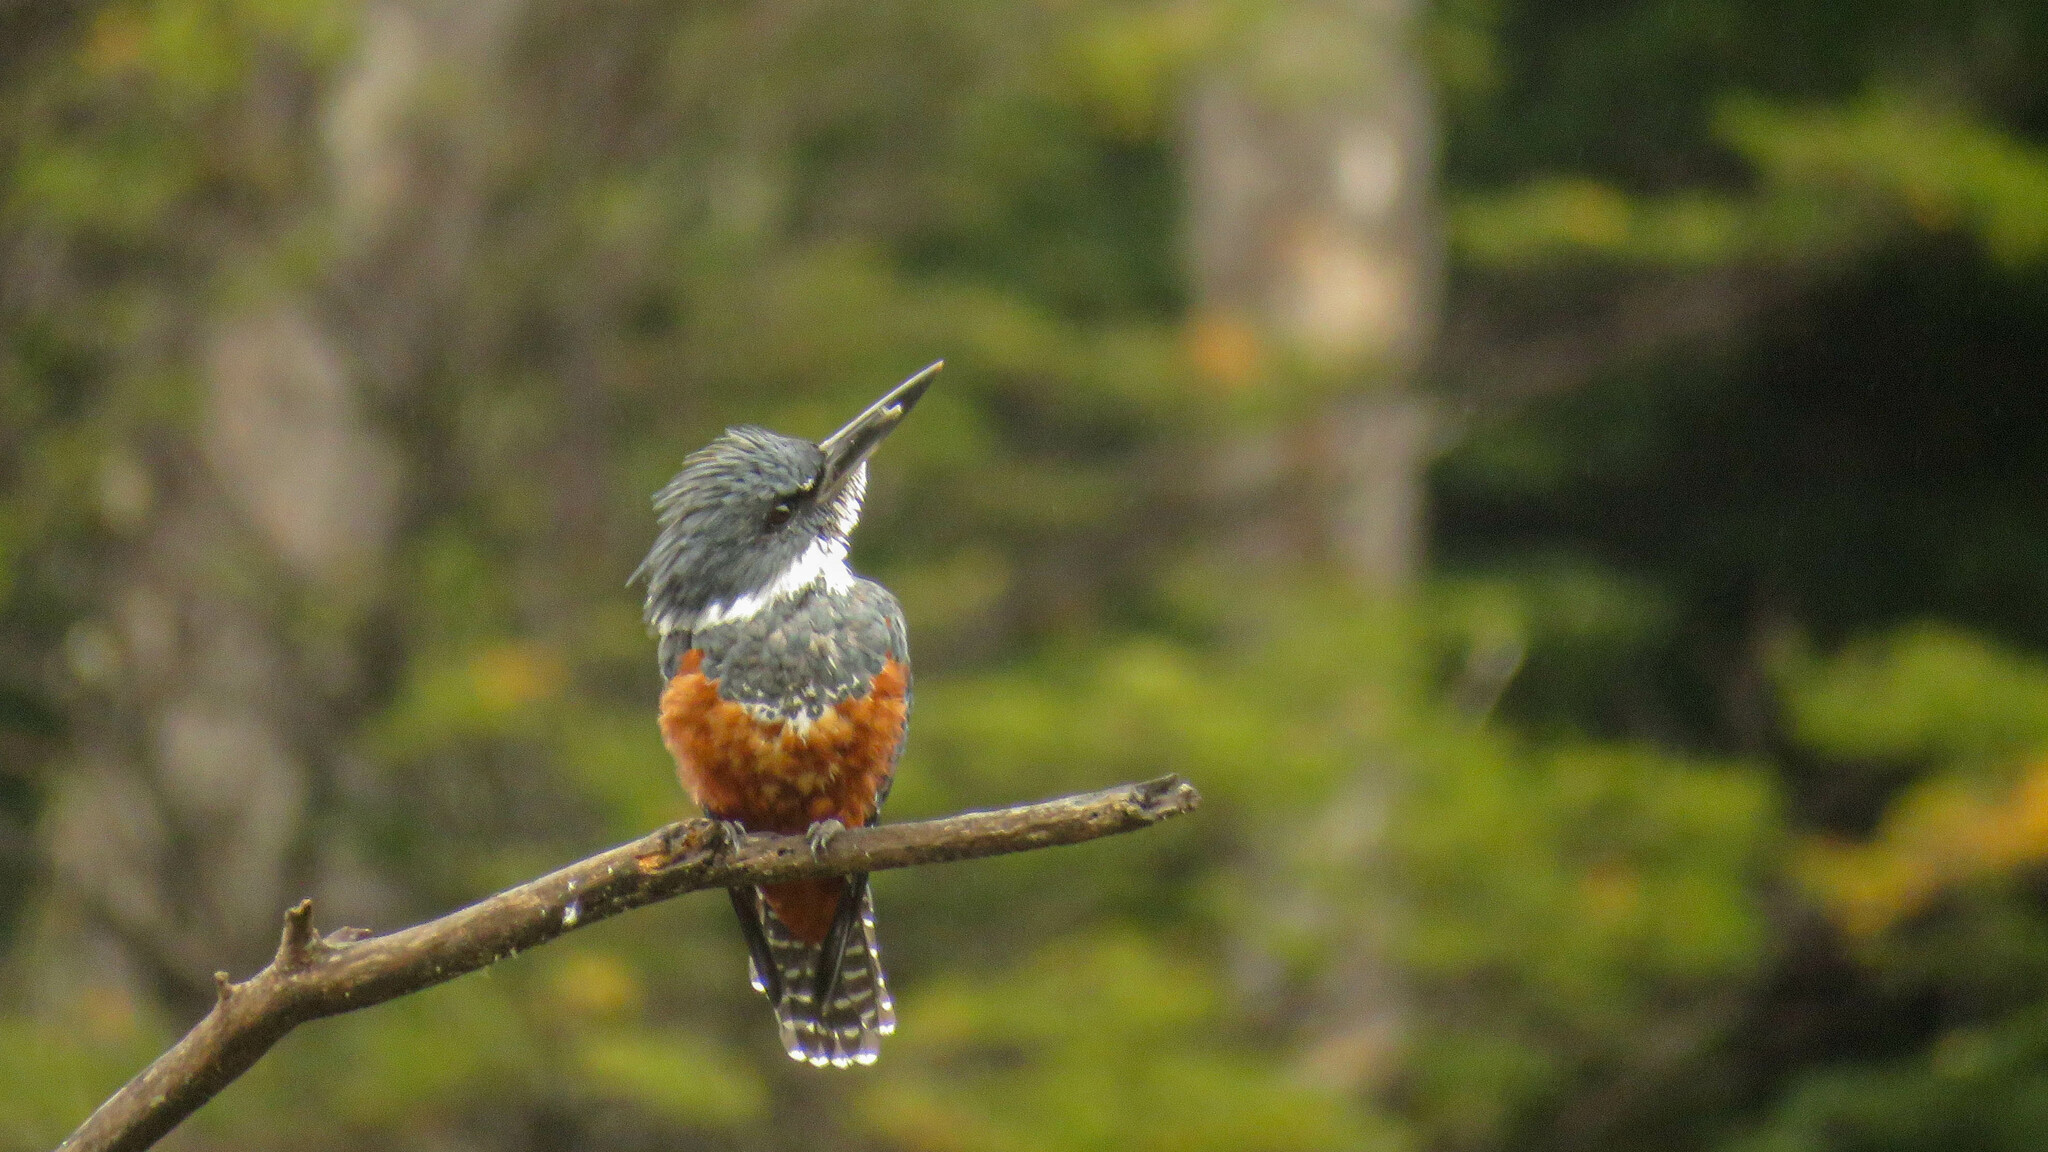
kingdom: Animalia
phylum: Chordata
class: Aves
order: Coraciiformes
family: Alcedinidae
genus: Megaceryle
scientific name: Megaceryle torquata
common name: Ringed kingfisher
